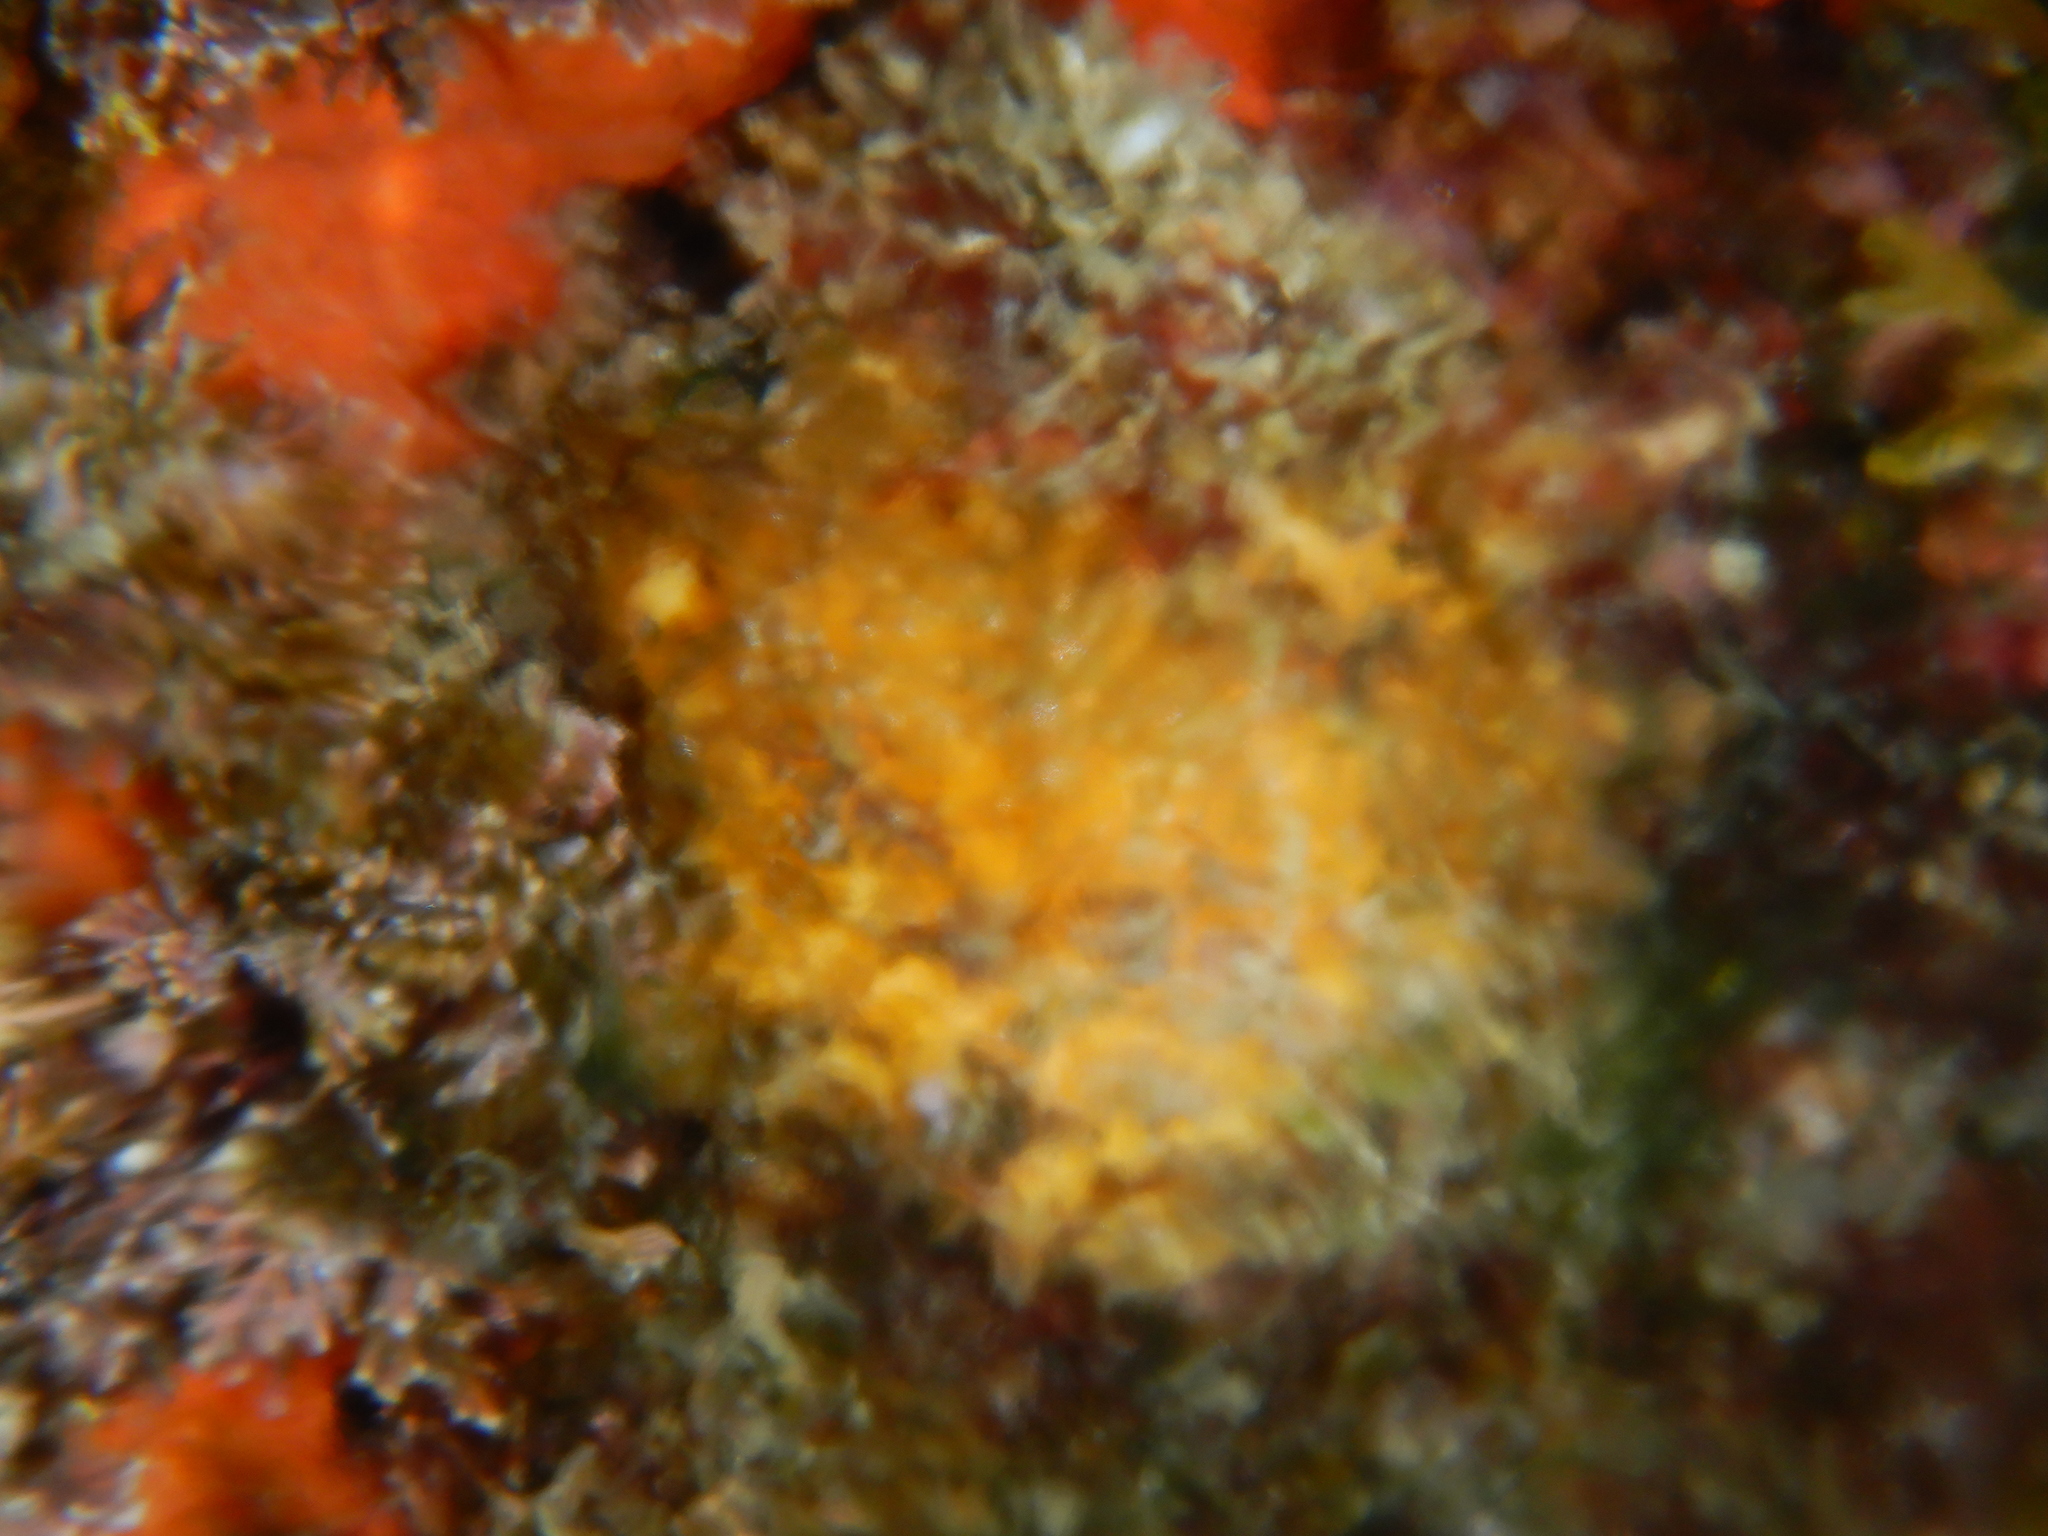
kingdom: Animalia
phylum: Porifera
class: Demospongiae
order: Tethyida
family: Tethyidae
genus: Tethya
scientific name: Tethya citrina
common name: Sea lemon
